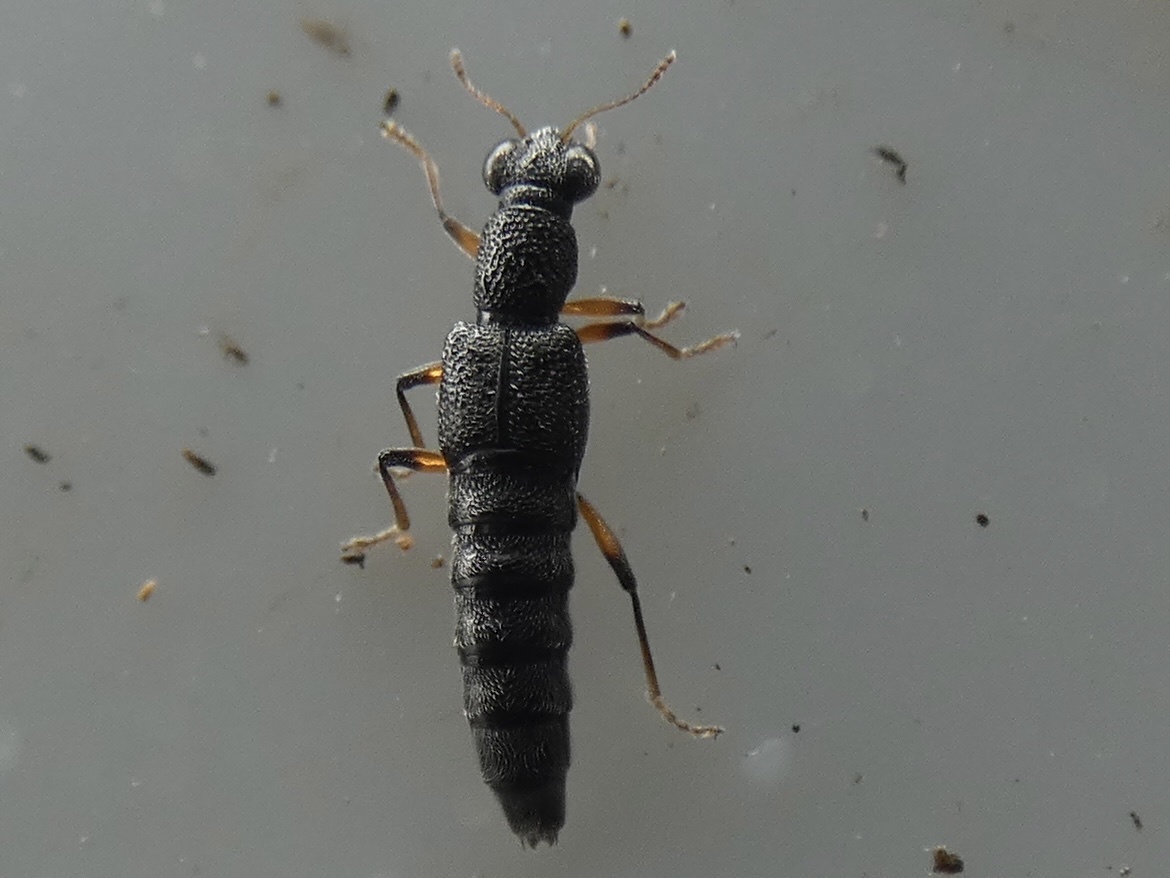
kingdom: Animalia
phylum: Arthropoda
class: Insecta
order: Coleoptera
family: Staphylinidae
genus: Stenus
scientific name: Stenus cicindeloides
